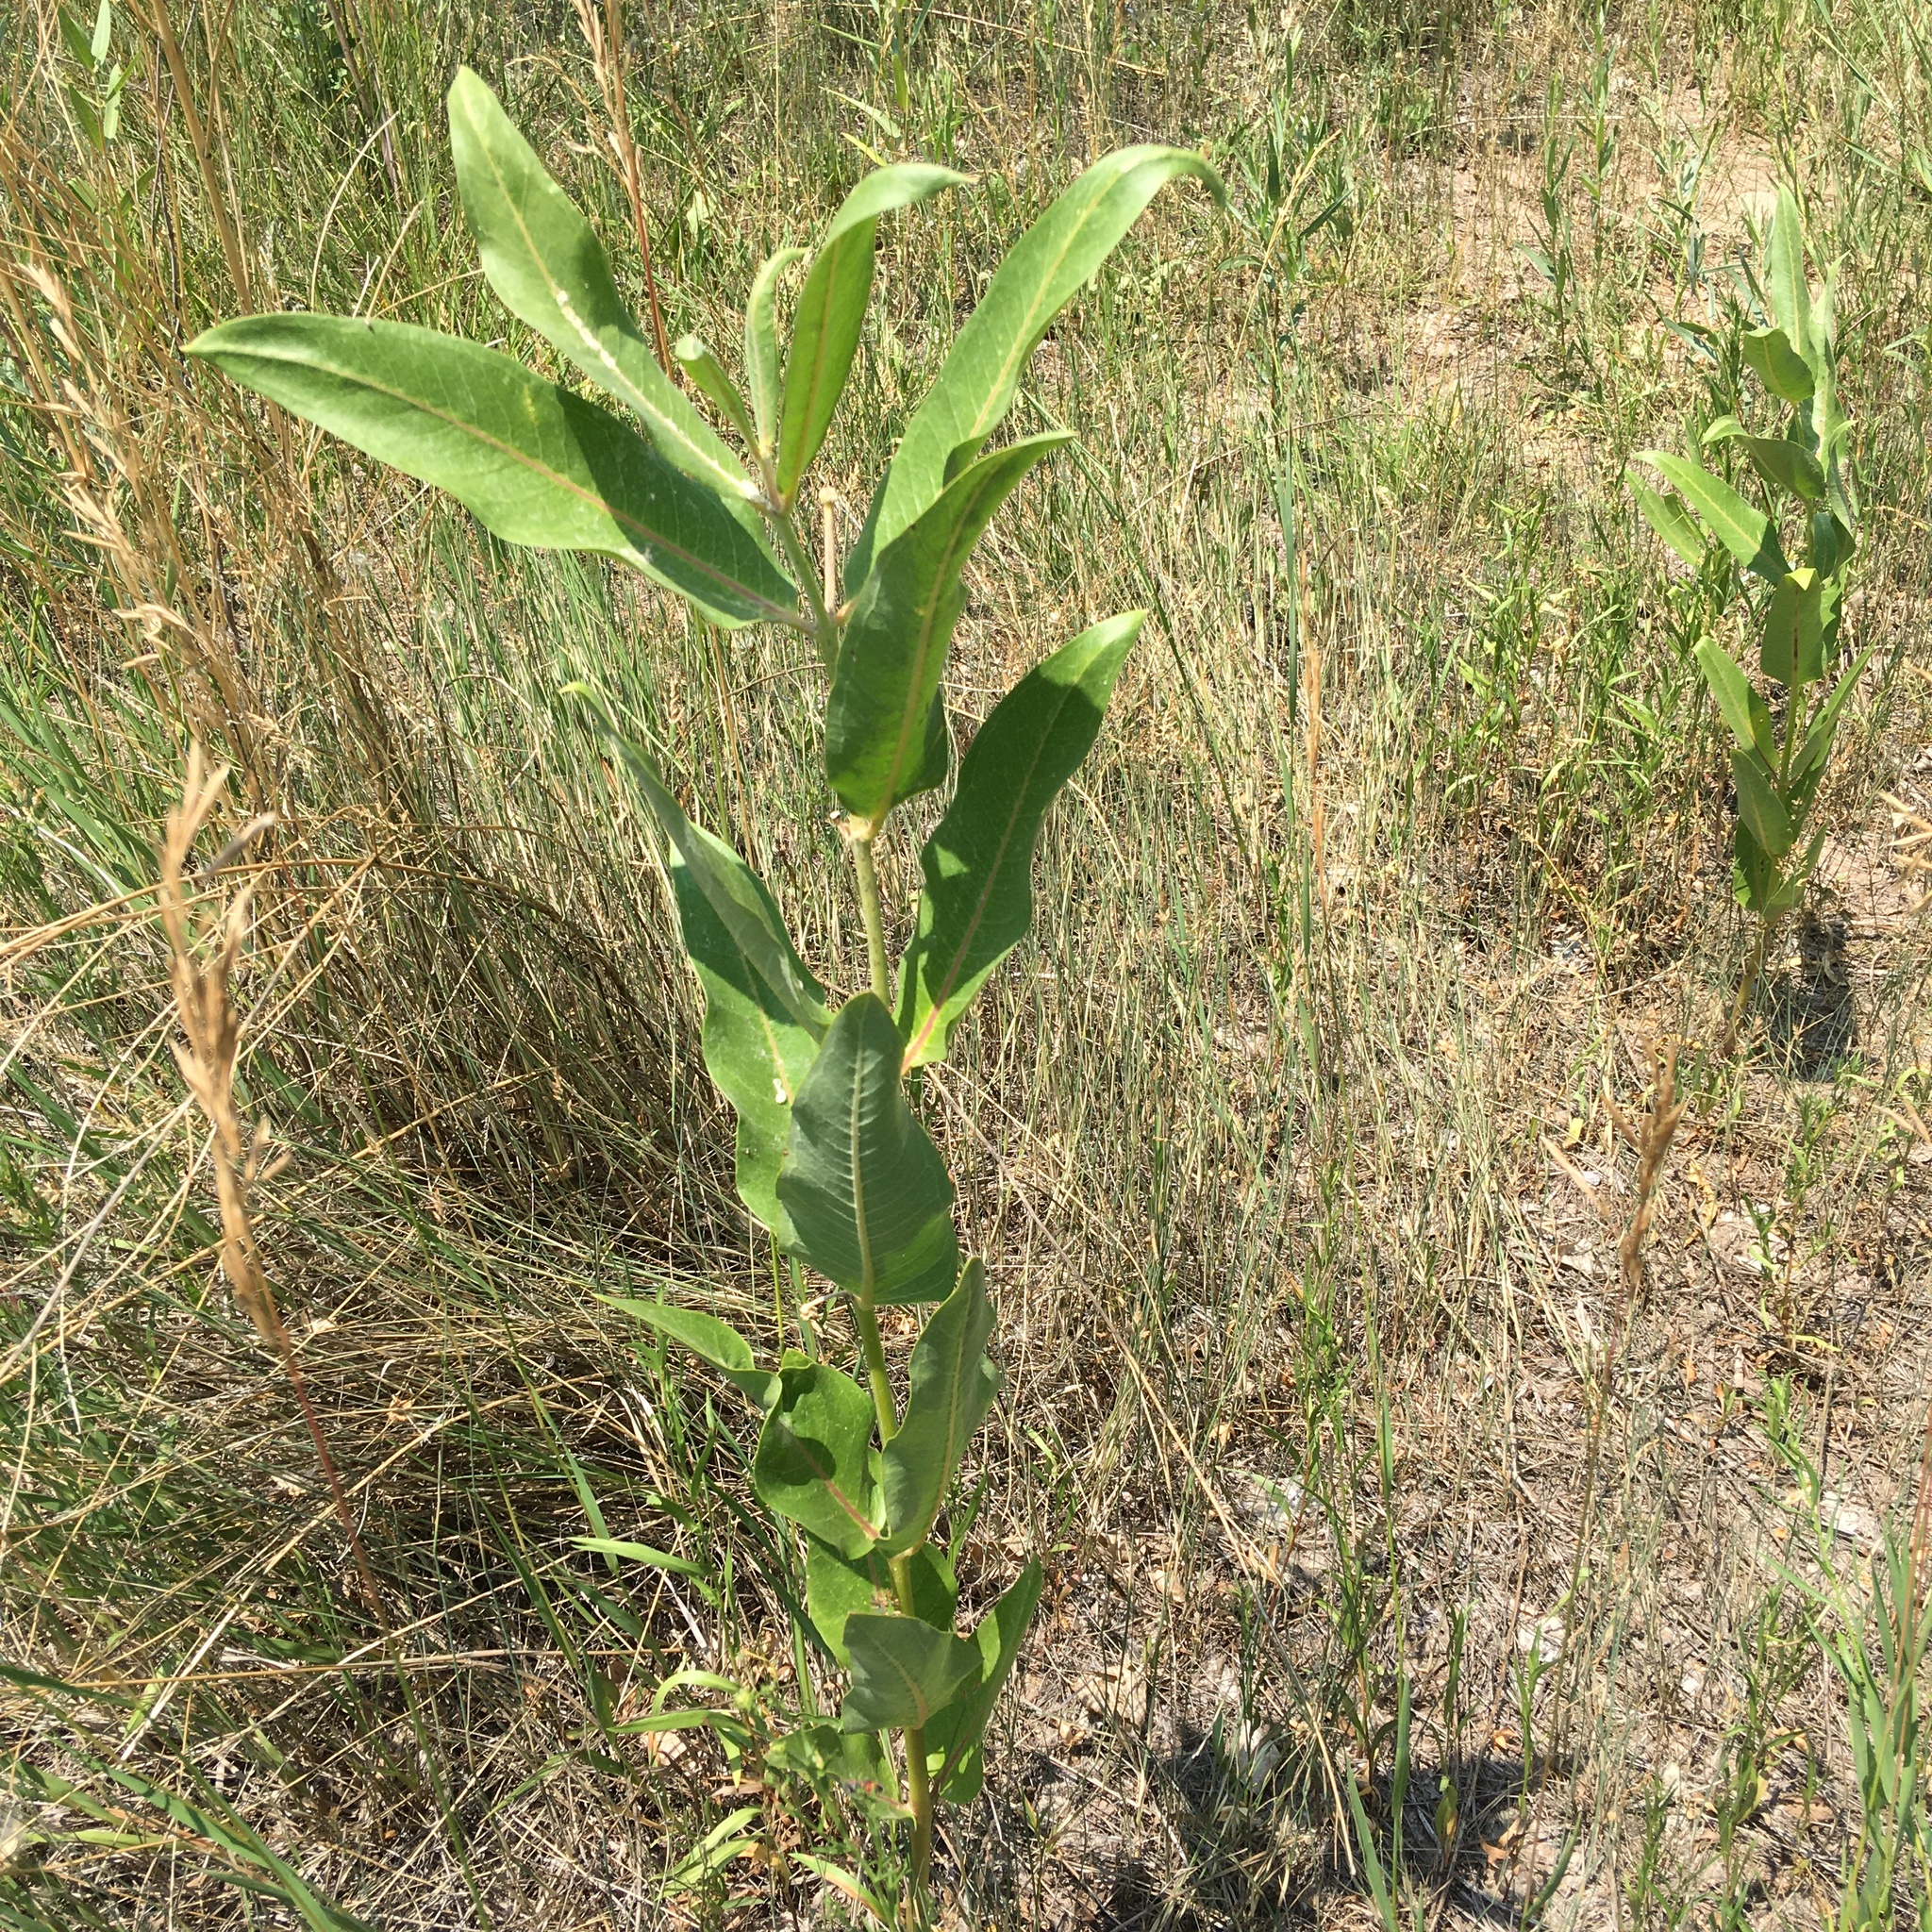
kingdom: Plantae
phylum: Tracheophyta
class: Magnoliopsida
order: Gentianales
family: Apocynaceae
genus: Asclepias
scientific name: Asclepias speciosa
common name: Showy milkweed
